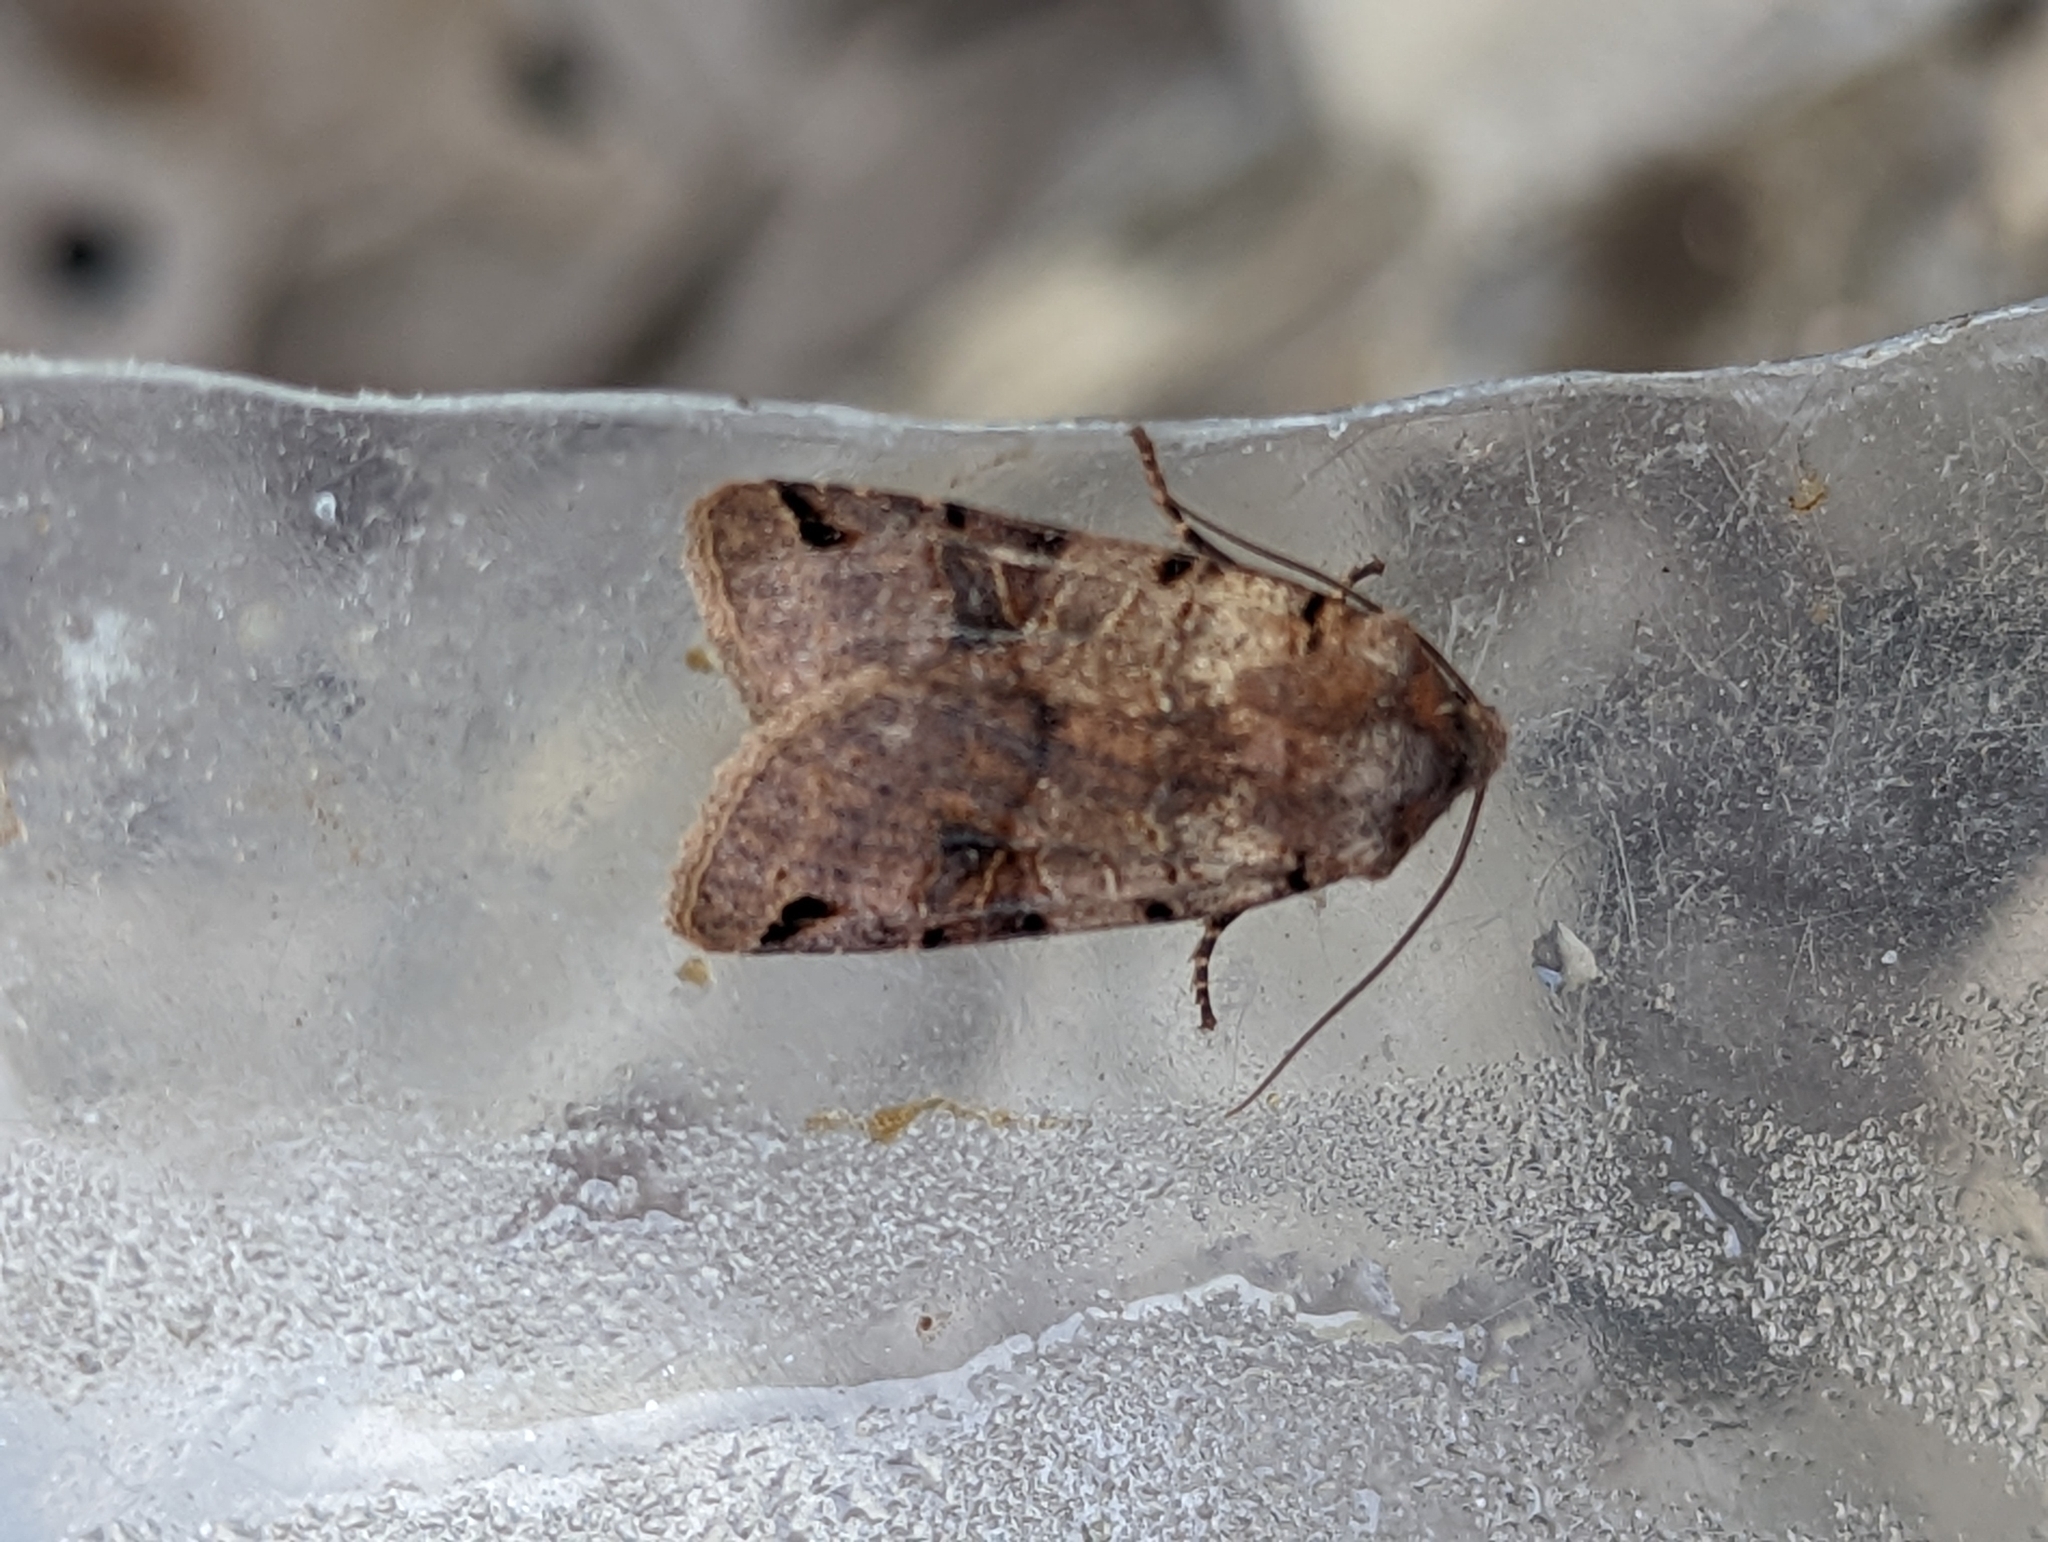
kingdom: Animalia
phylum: Arthropoda
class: Insecta
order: Lepidoptera
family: Noctuidae
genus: Agrochola
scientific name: Agrochola litura
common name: Brown-spot pinion
